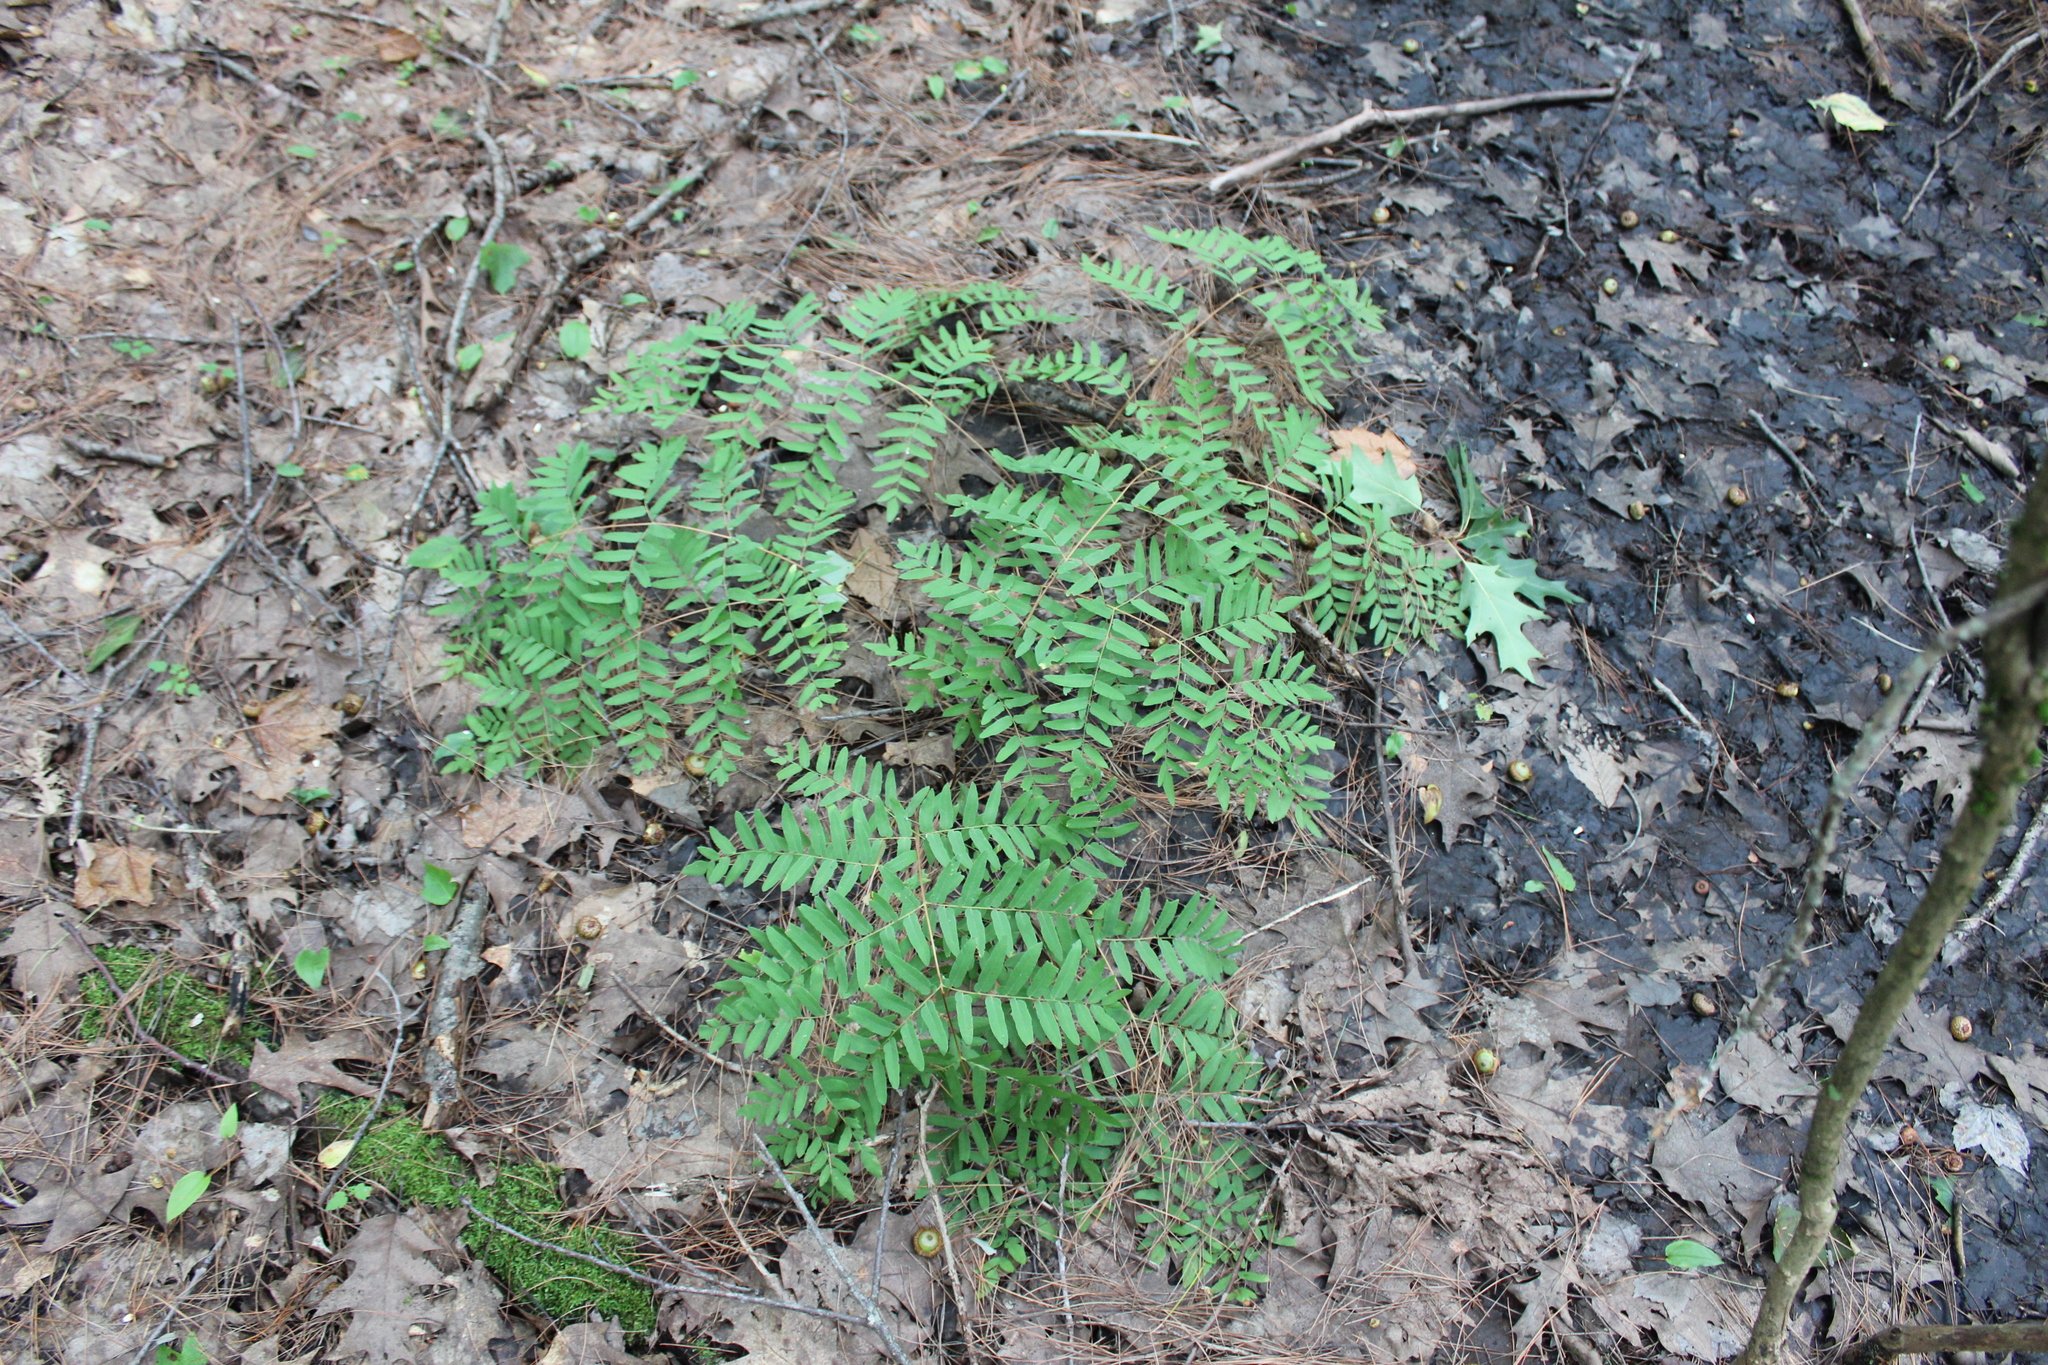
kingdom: Plantae
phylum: Tracheophyta
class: Polypodiopsida
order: Osmundales
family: Osmundaceae
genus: Osmunda
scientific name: Osmunda spectabilis
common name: American royal fern
